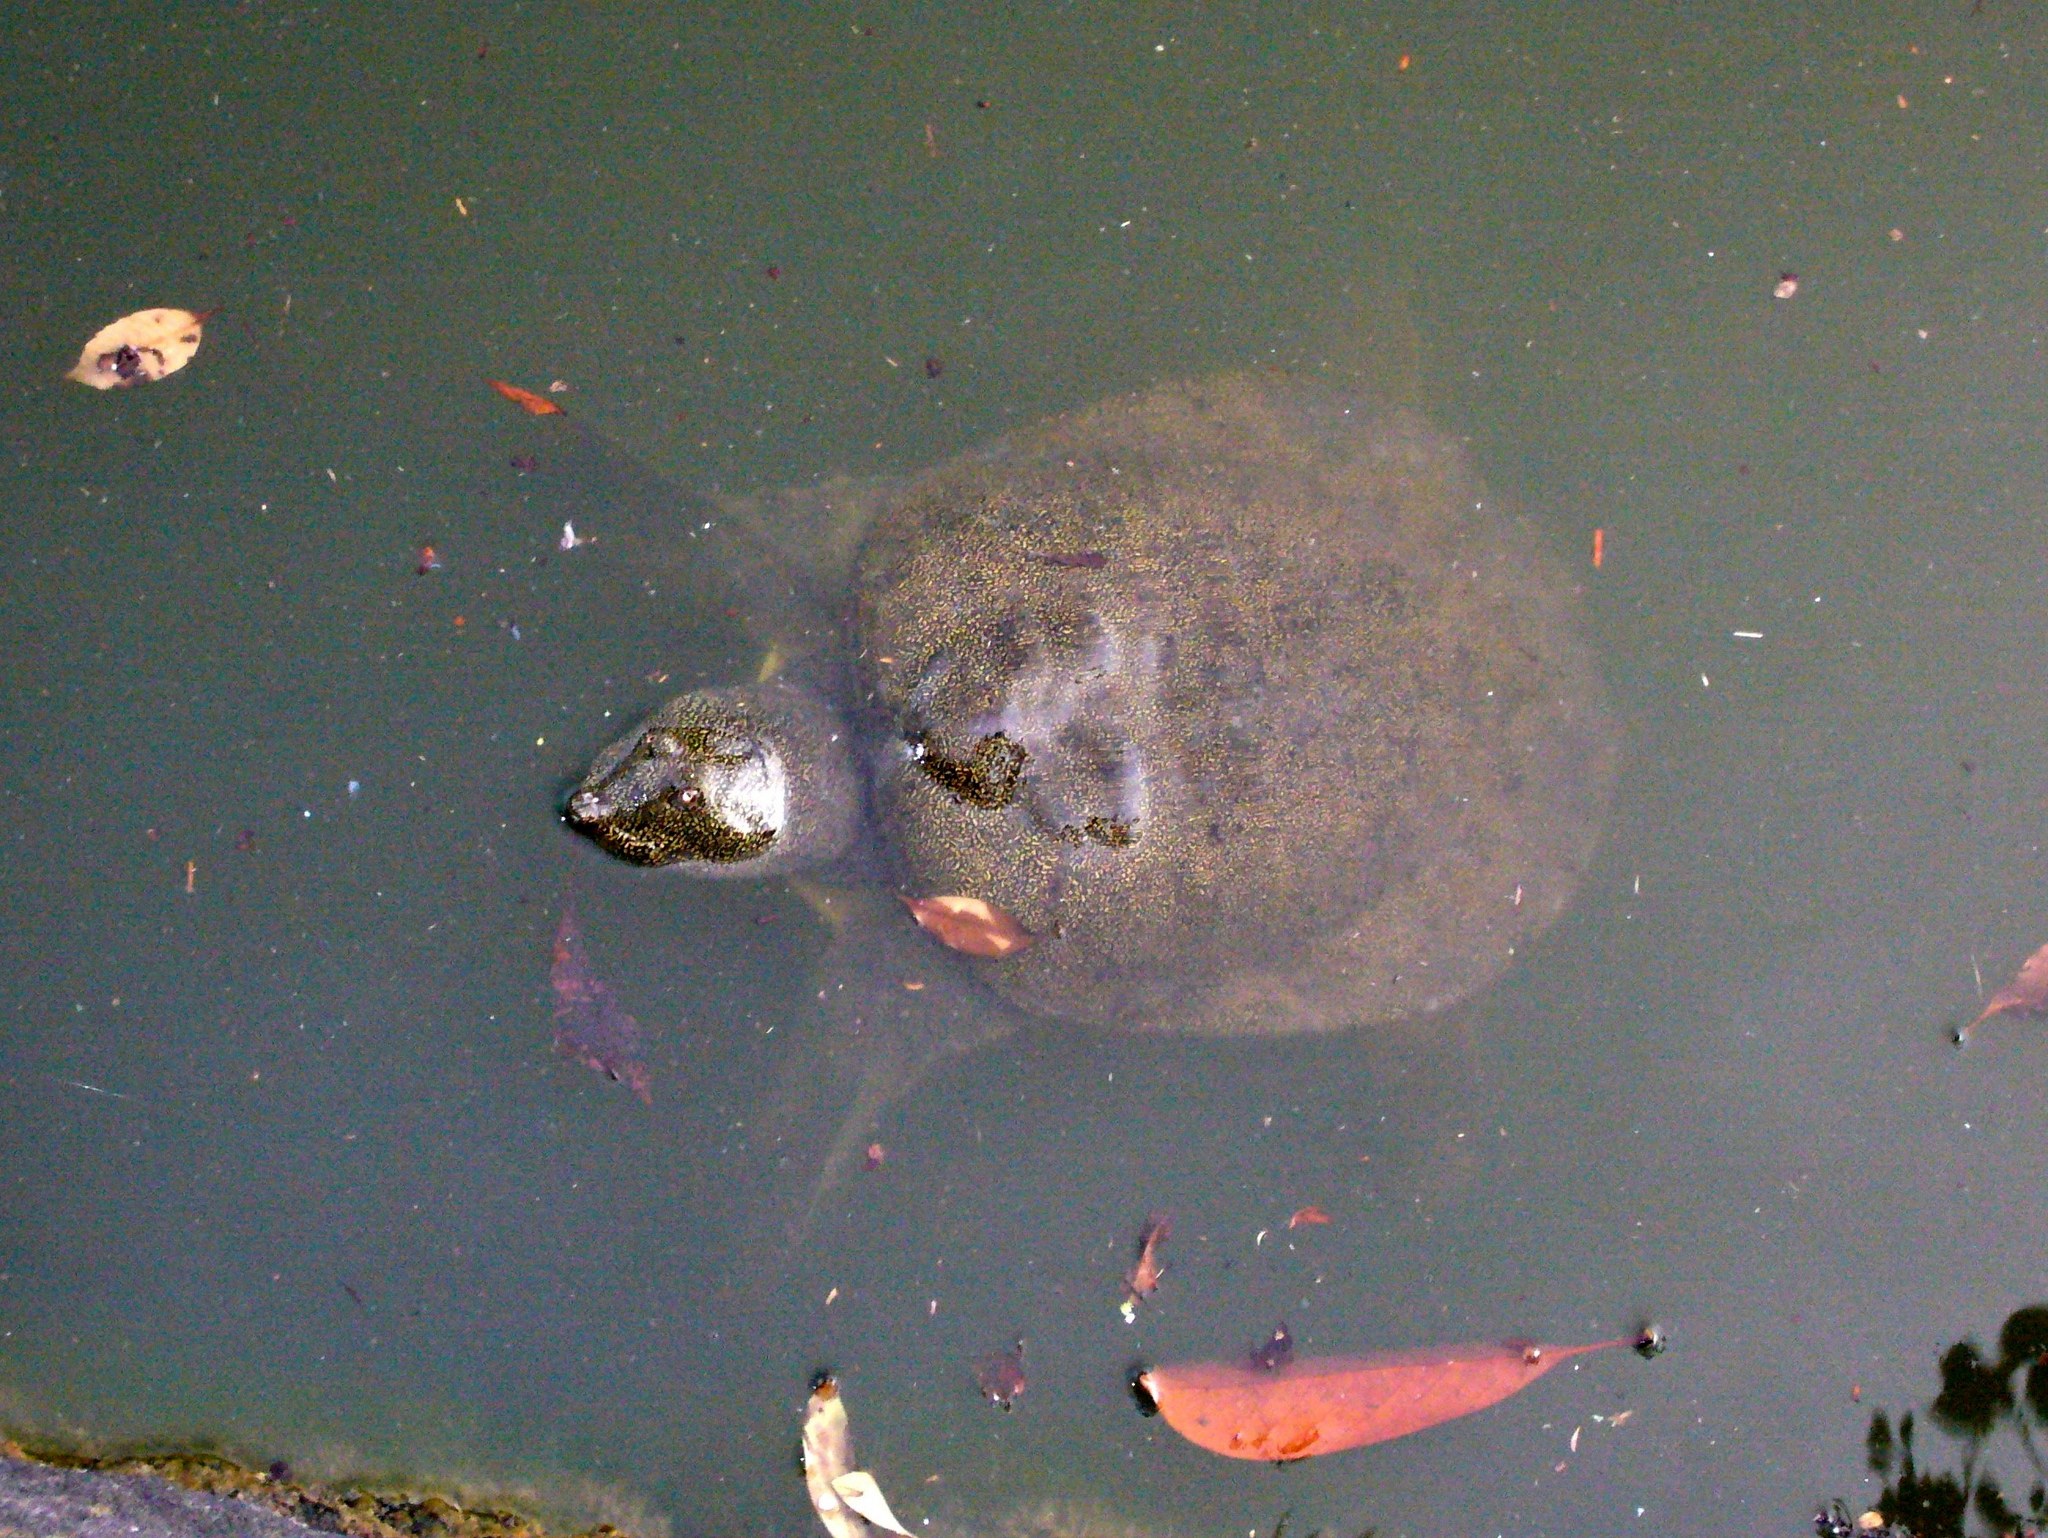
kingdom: Animalia
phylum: Chordata
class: Testudines
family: Trionychidae
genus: Pelodiscus
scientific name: Pelodiscus sinensis
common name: Chinese softshell turtle
